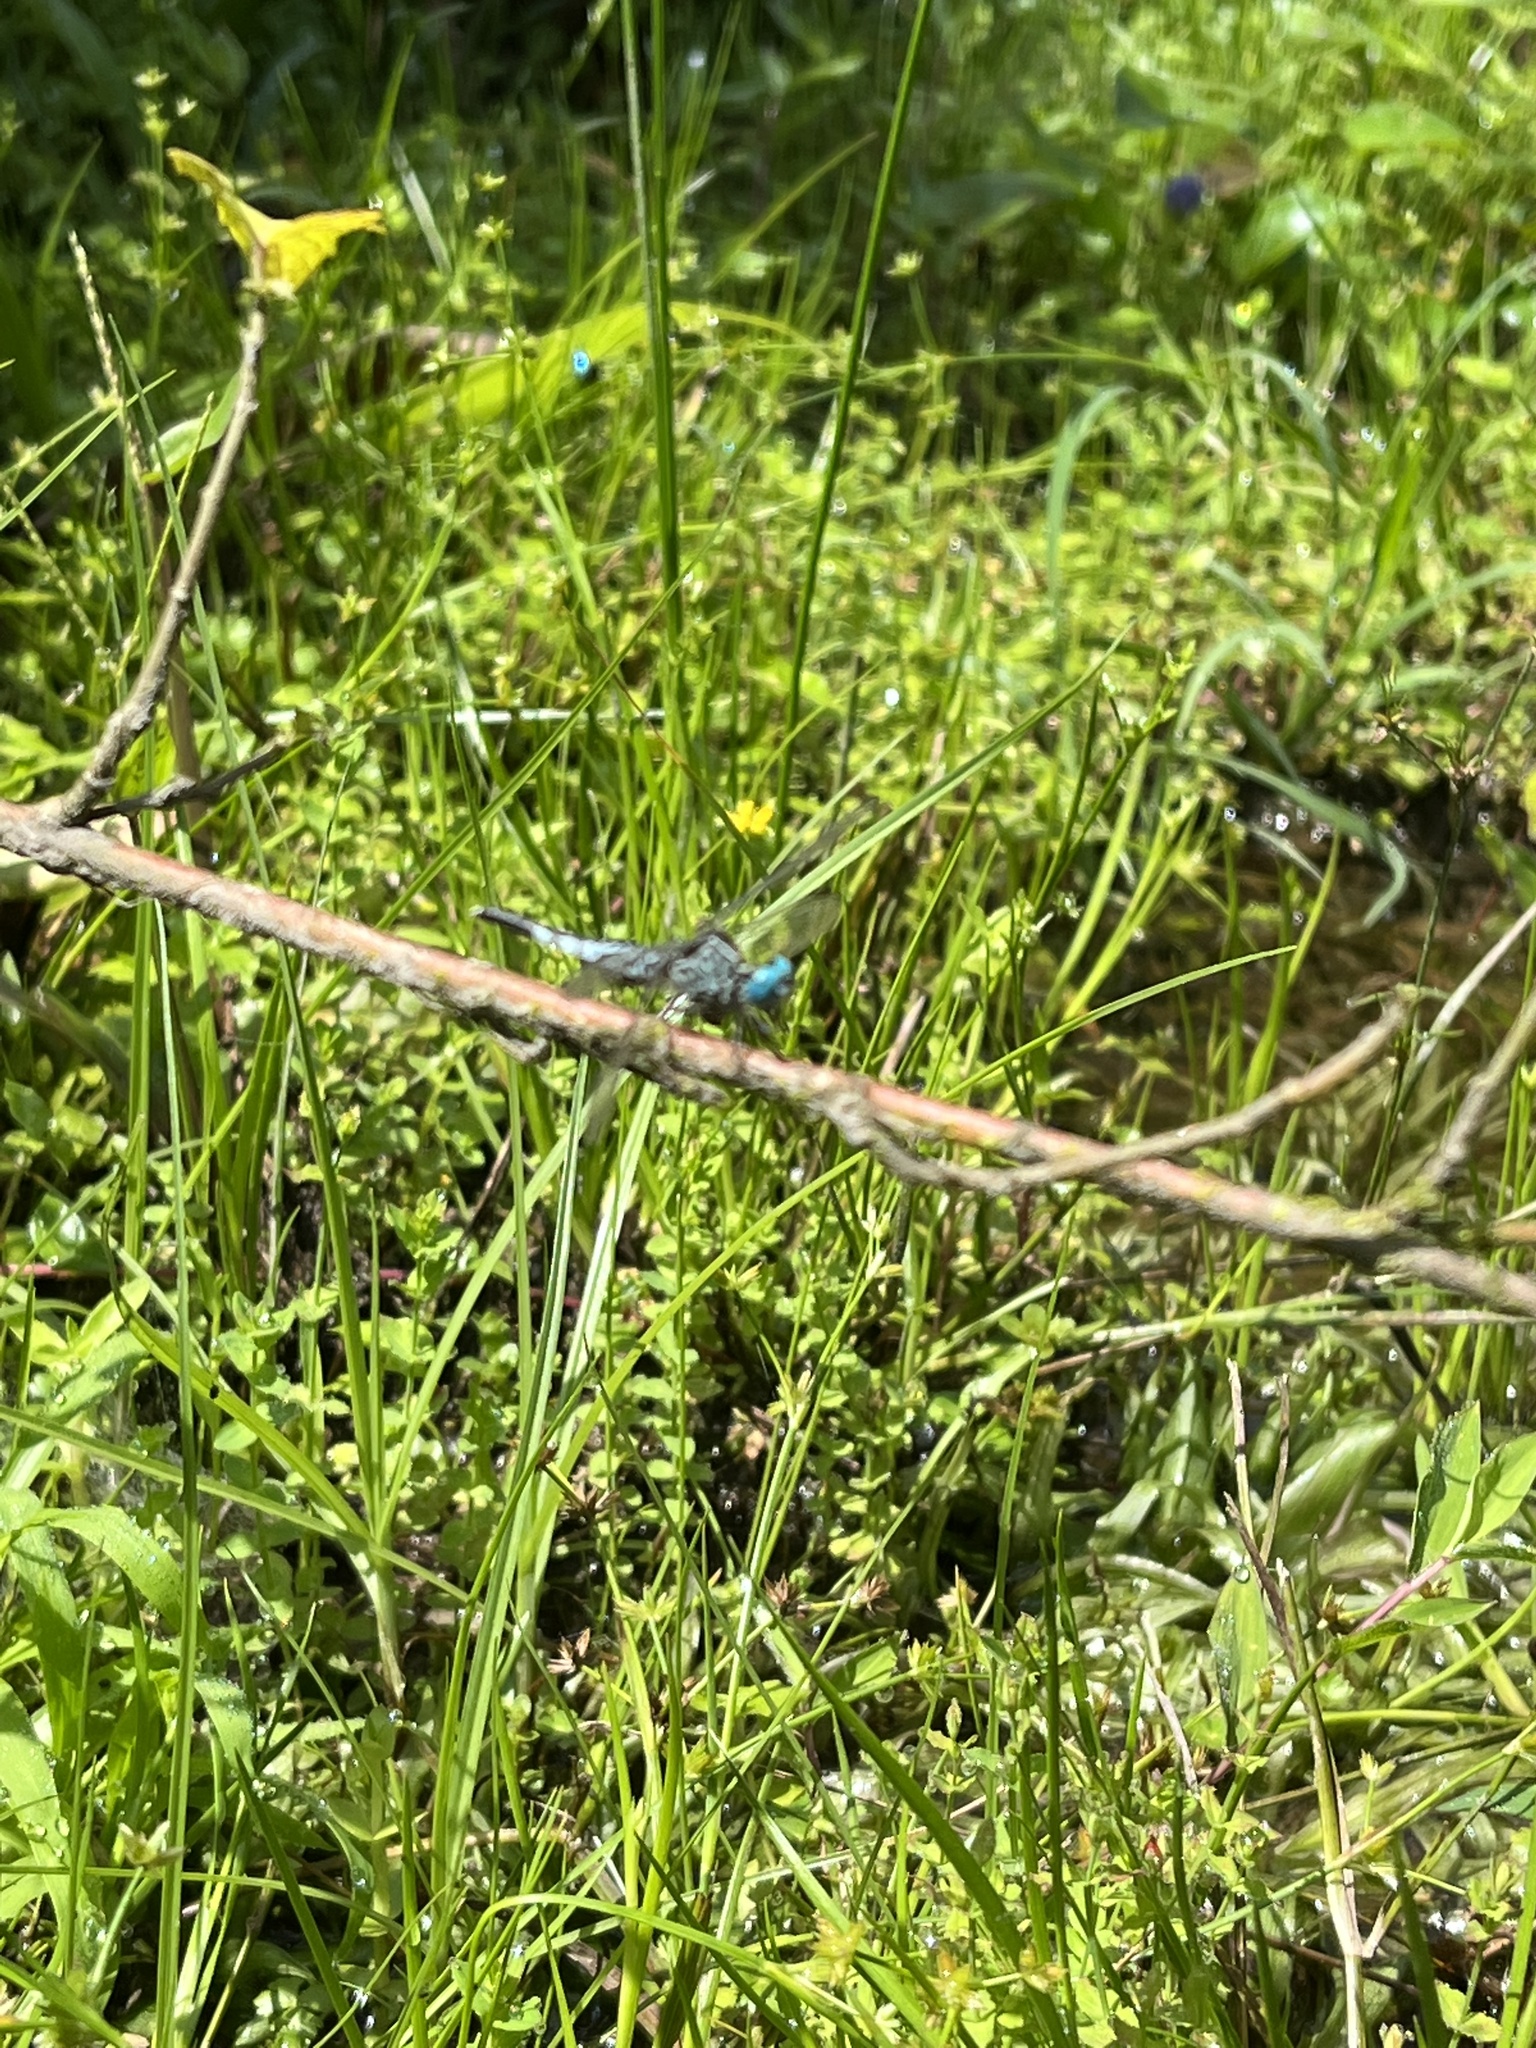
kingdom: Animalia
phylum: Arthropoda
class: Insecta
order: Odonata
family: Libellulidae
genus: Acisoma
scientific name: Acisoma panorpoides
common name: Asian pintail
